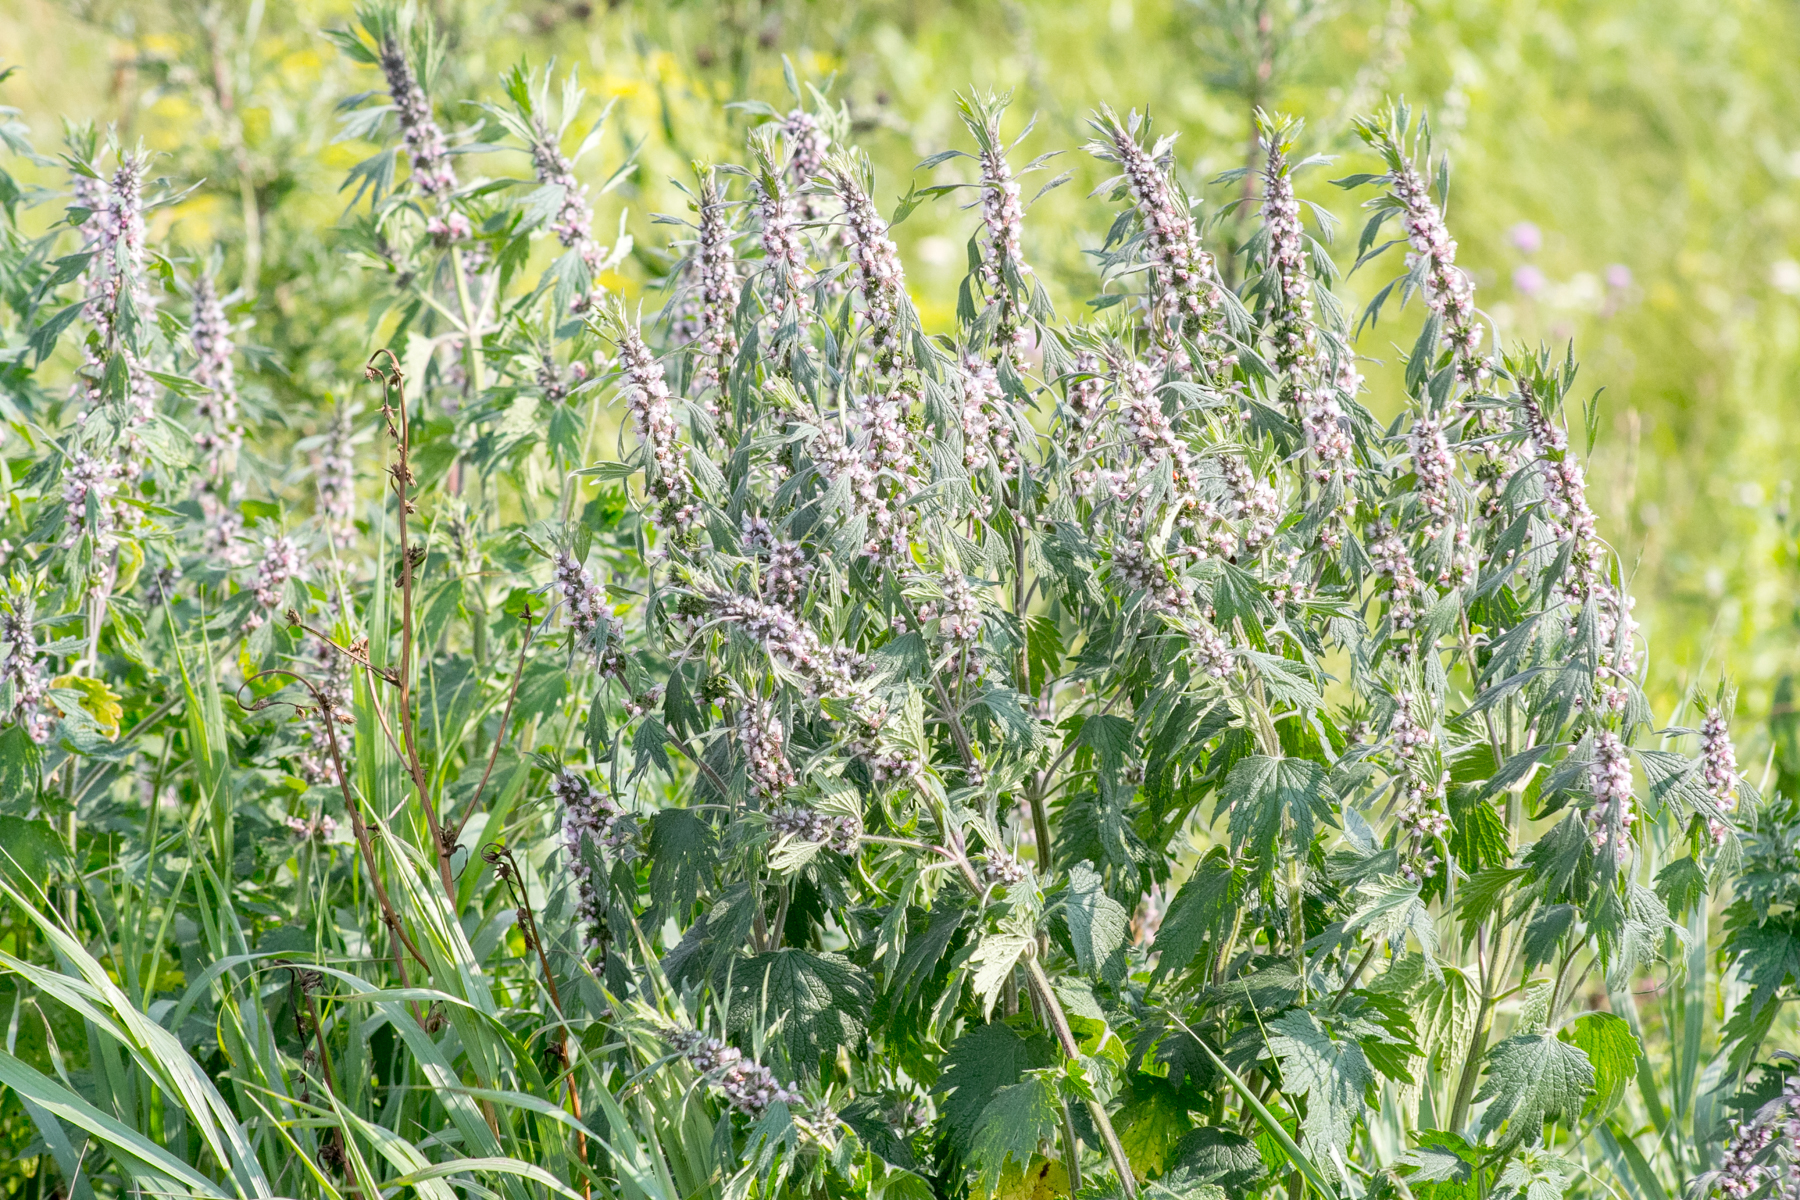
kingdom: Plantae
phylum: Tracheophyta
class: Magnoliopsida
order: Lamiales
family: Lamiaceae
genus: Leonurus
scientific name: Leonurus quinquelobatus
